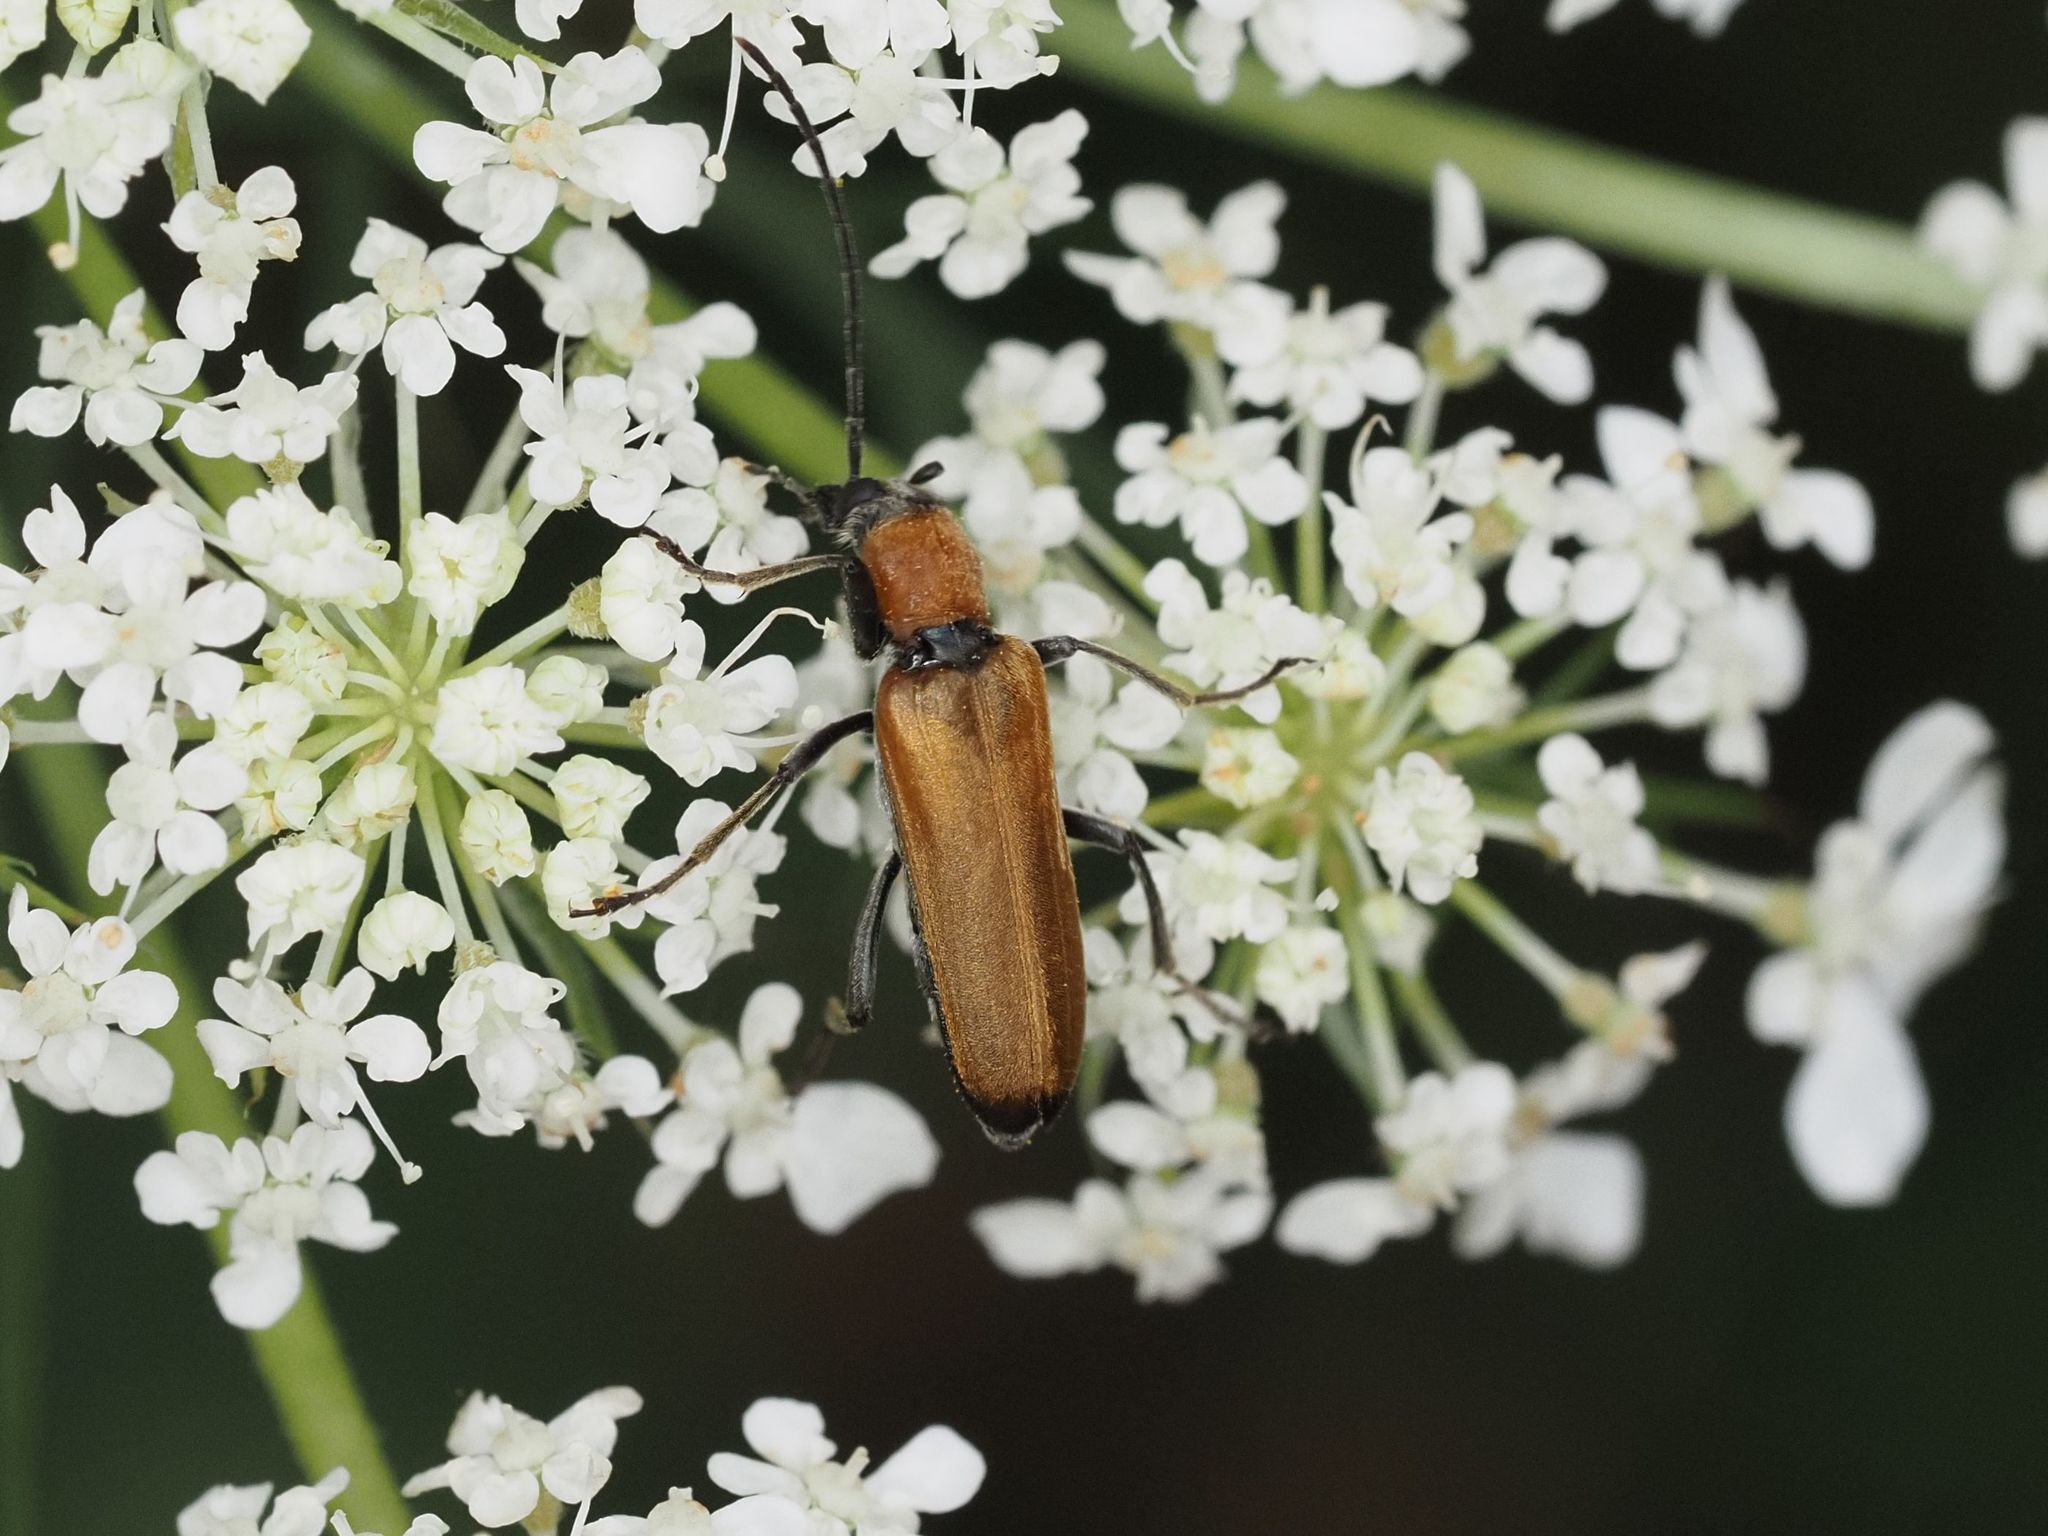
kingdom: Animalia
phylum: Arthropoda
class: Insecta
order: Coleoptera
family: Oedemeridae
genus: Anogcodes
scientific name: Anogcodes ustulatus
